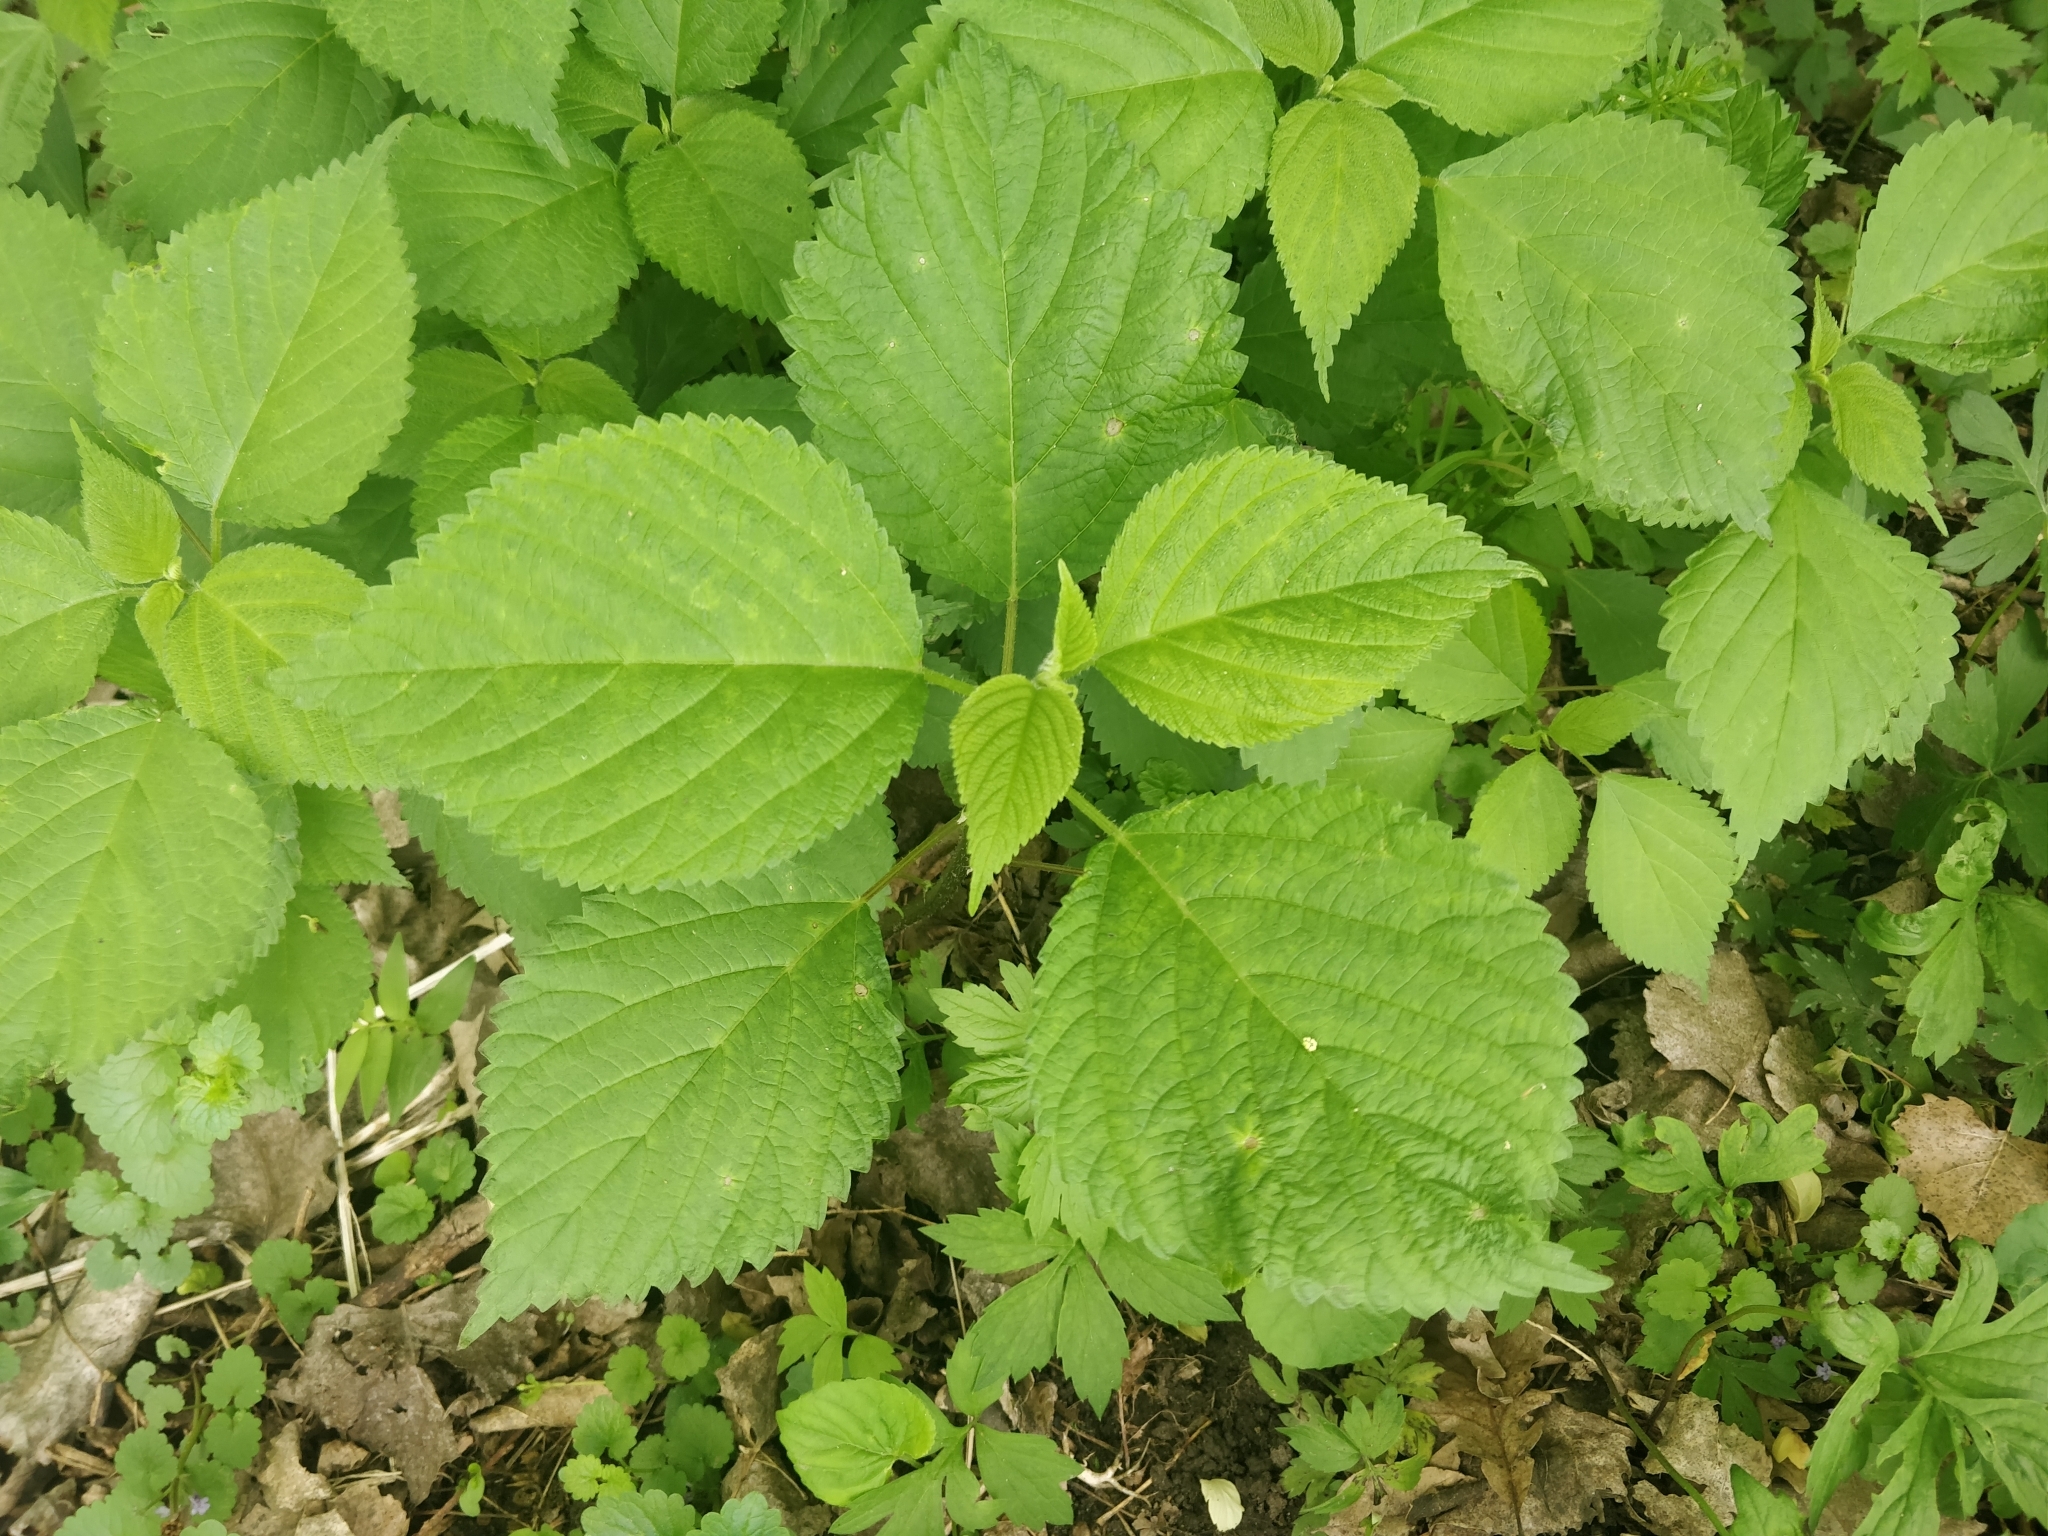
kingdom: Plantae
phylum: Tracheophyta
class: Magnoliopsida
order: Rosales
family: Urticaceae
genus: Laportea
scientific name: Laportea canadensis
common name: Canada nettle
